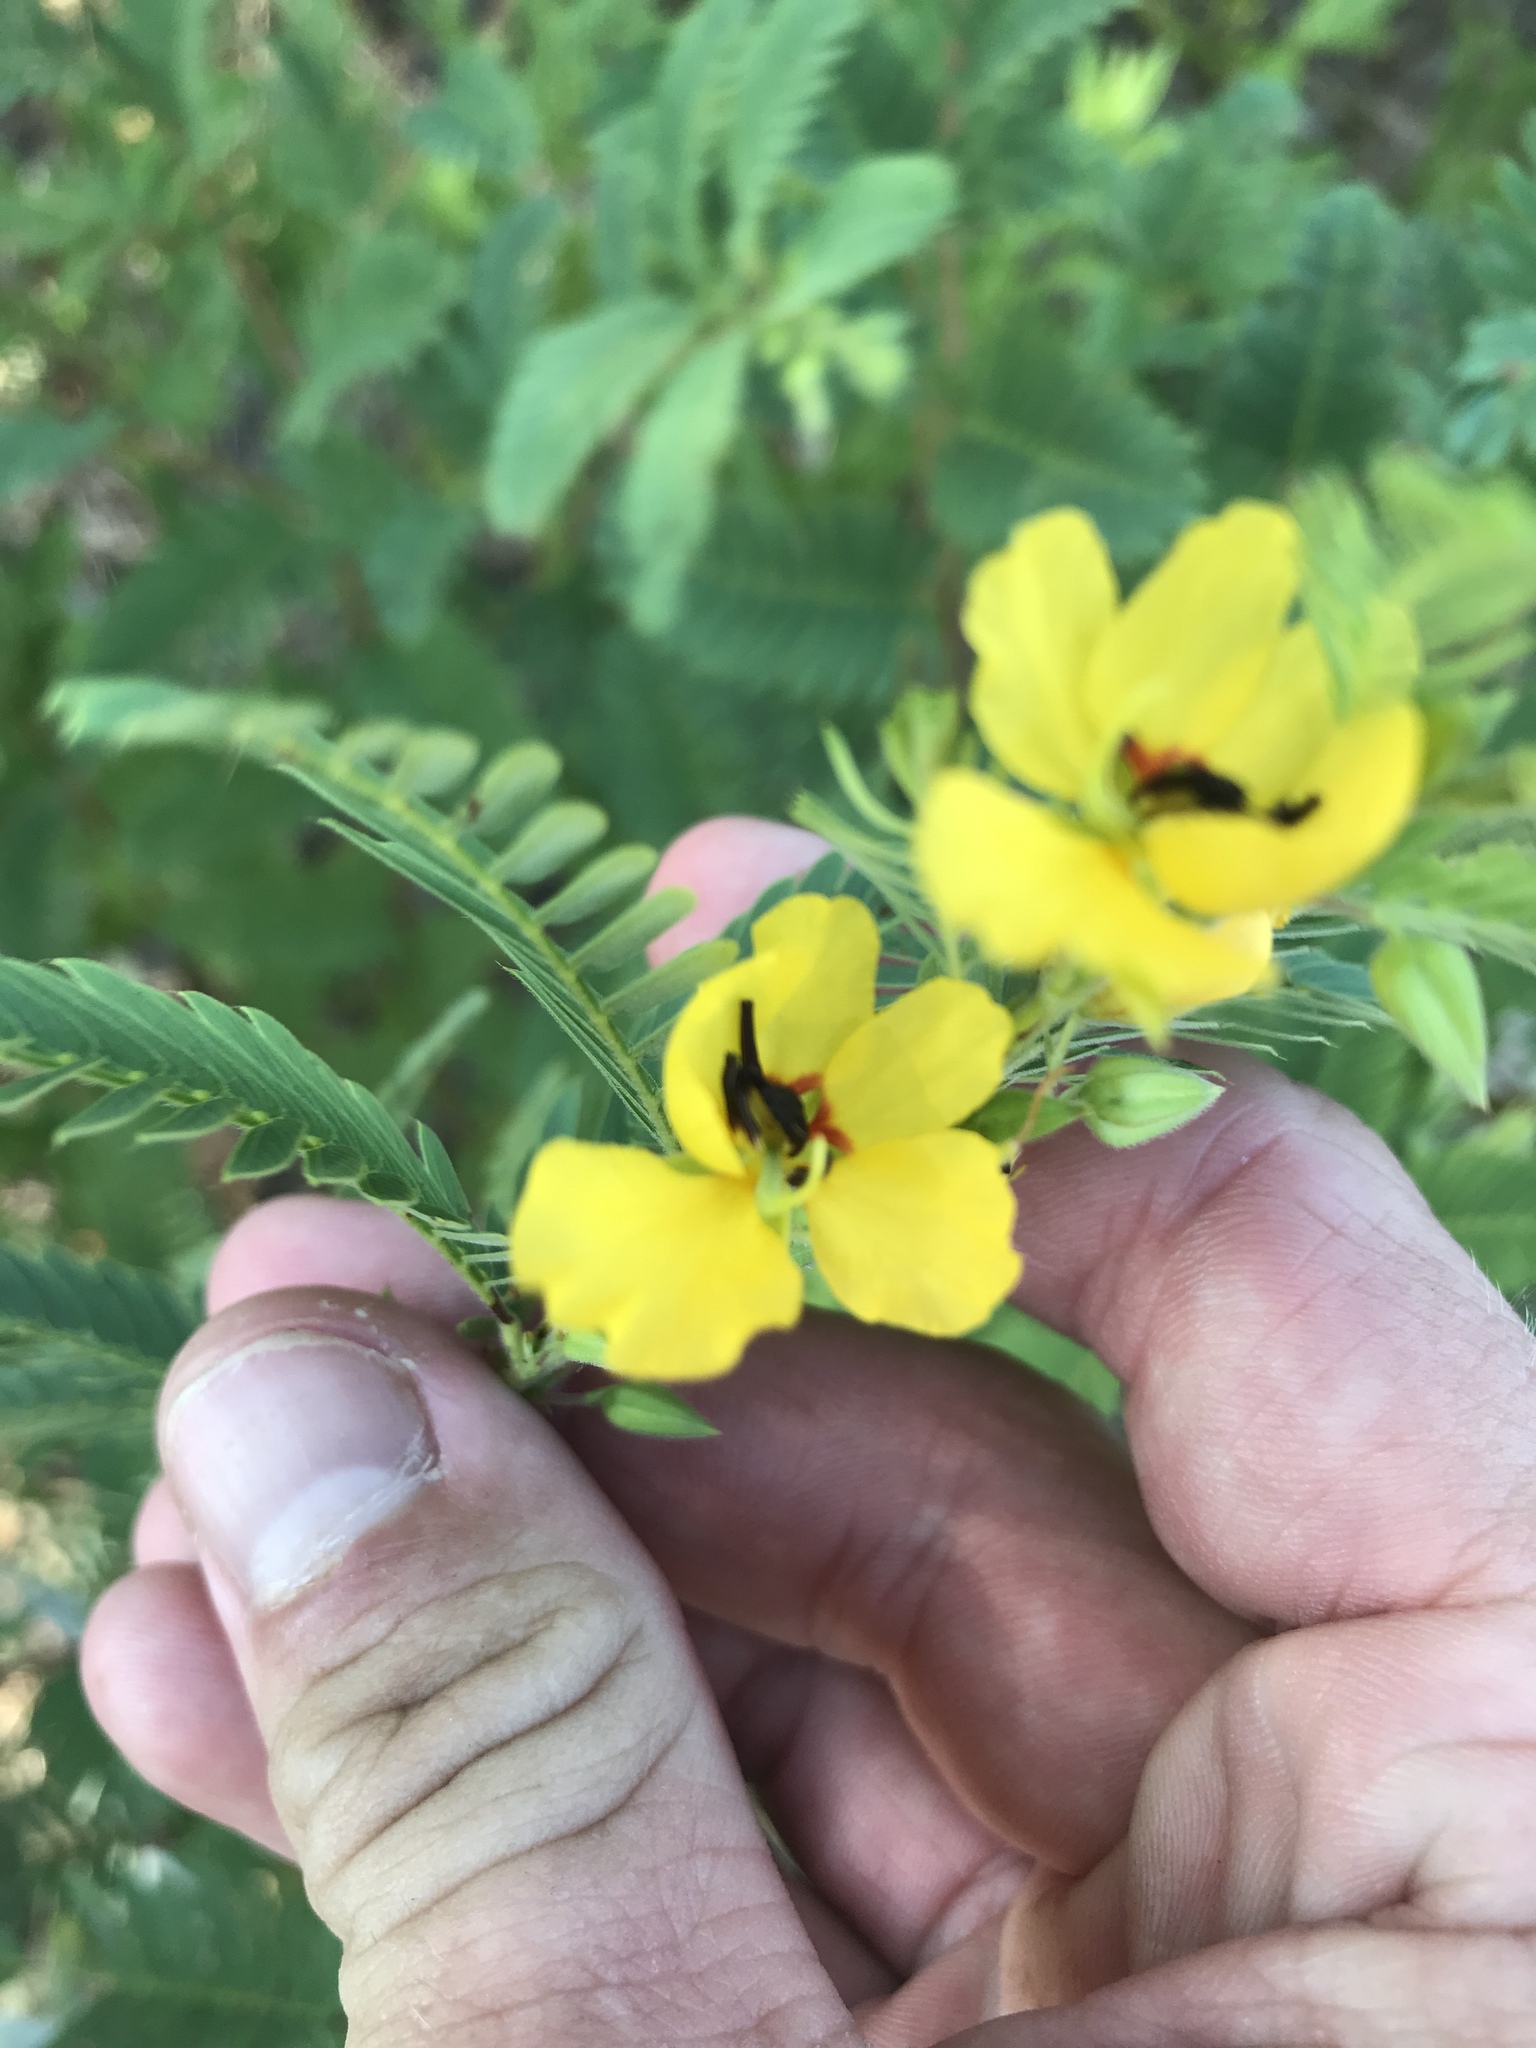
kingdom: Plantae
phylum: Tracheophyta
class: Magnoliopsida
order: Fabales
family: Fabaceae
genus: Chamaecrista
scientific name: Chamaecrista fasciculata
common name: Golden cassia
